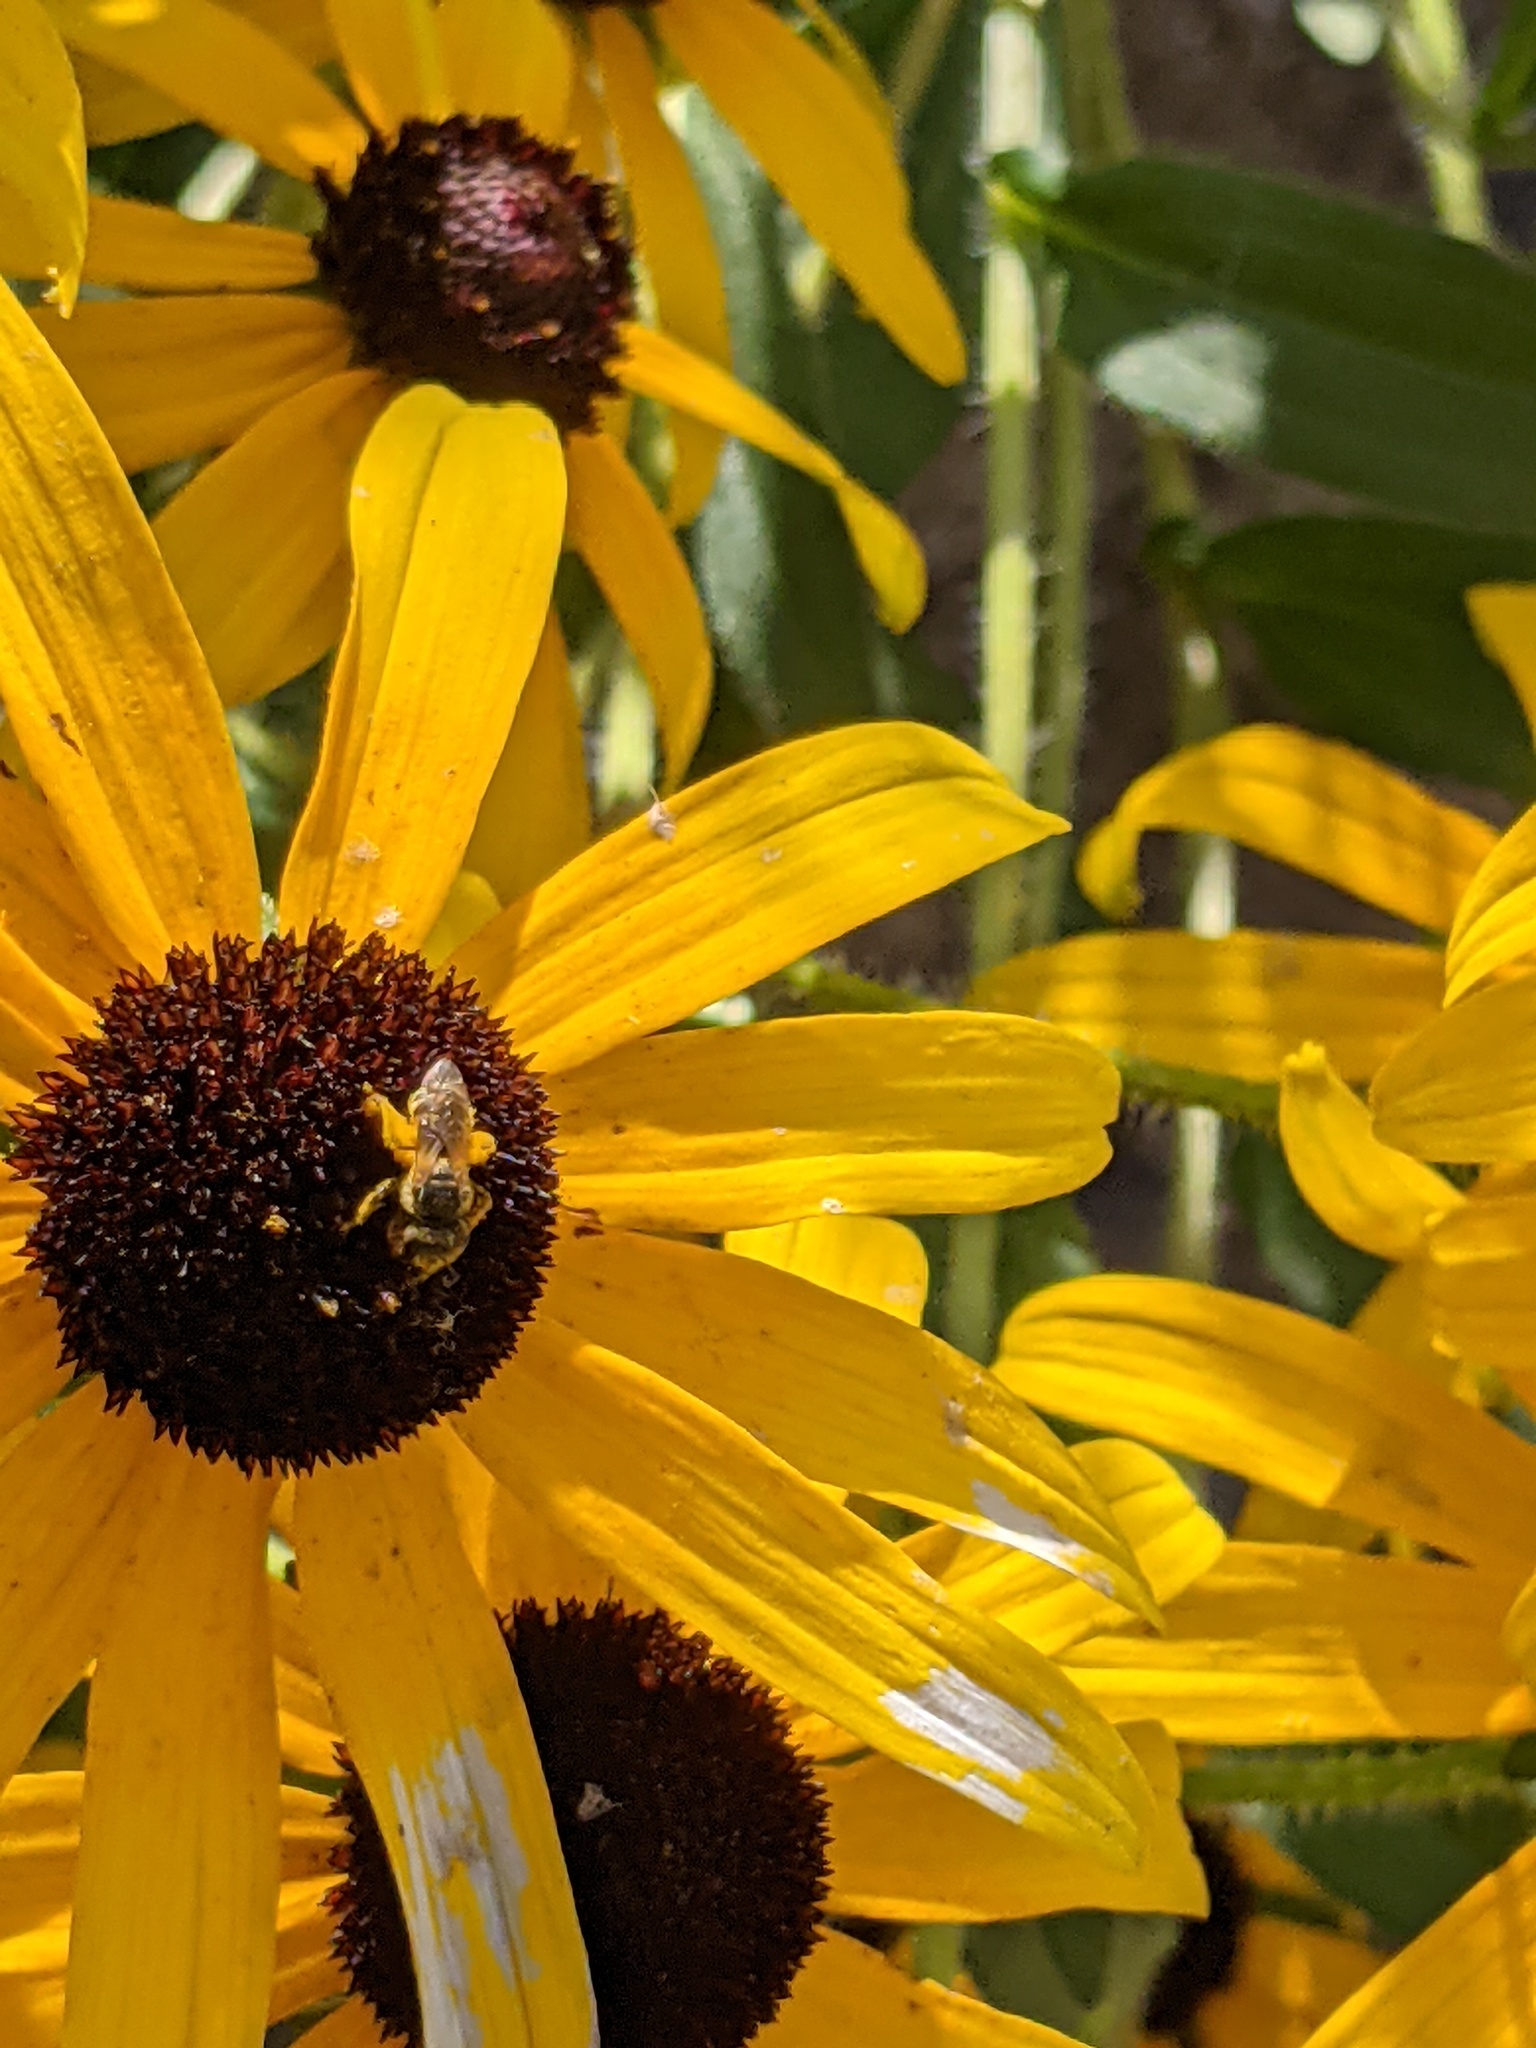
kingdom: Animalia
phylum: Arthropoda
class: Insecta
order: Hymenoptera
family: Halictidae
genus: Halictus
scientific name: Halictus ligatus
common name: Ligated furrow bee
